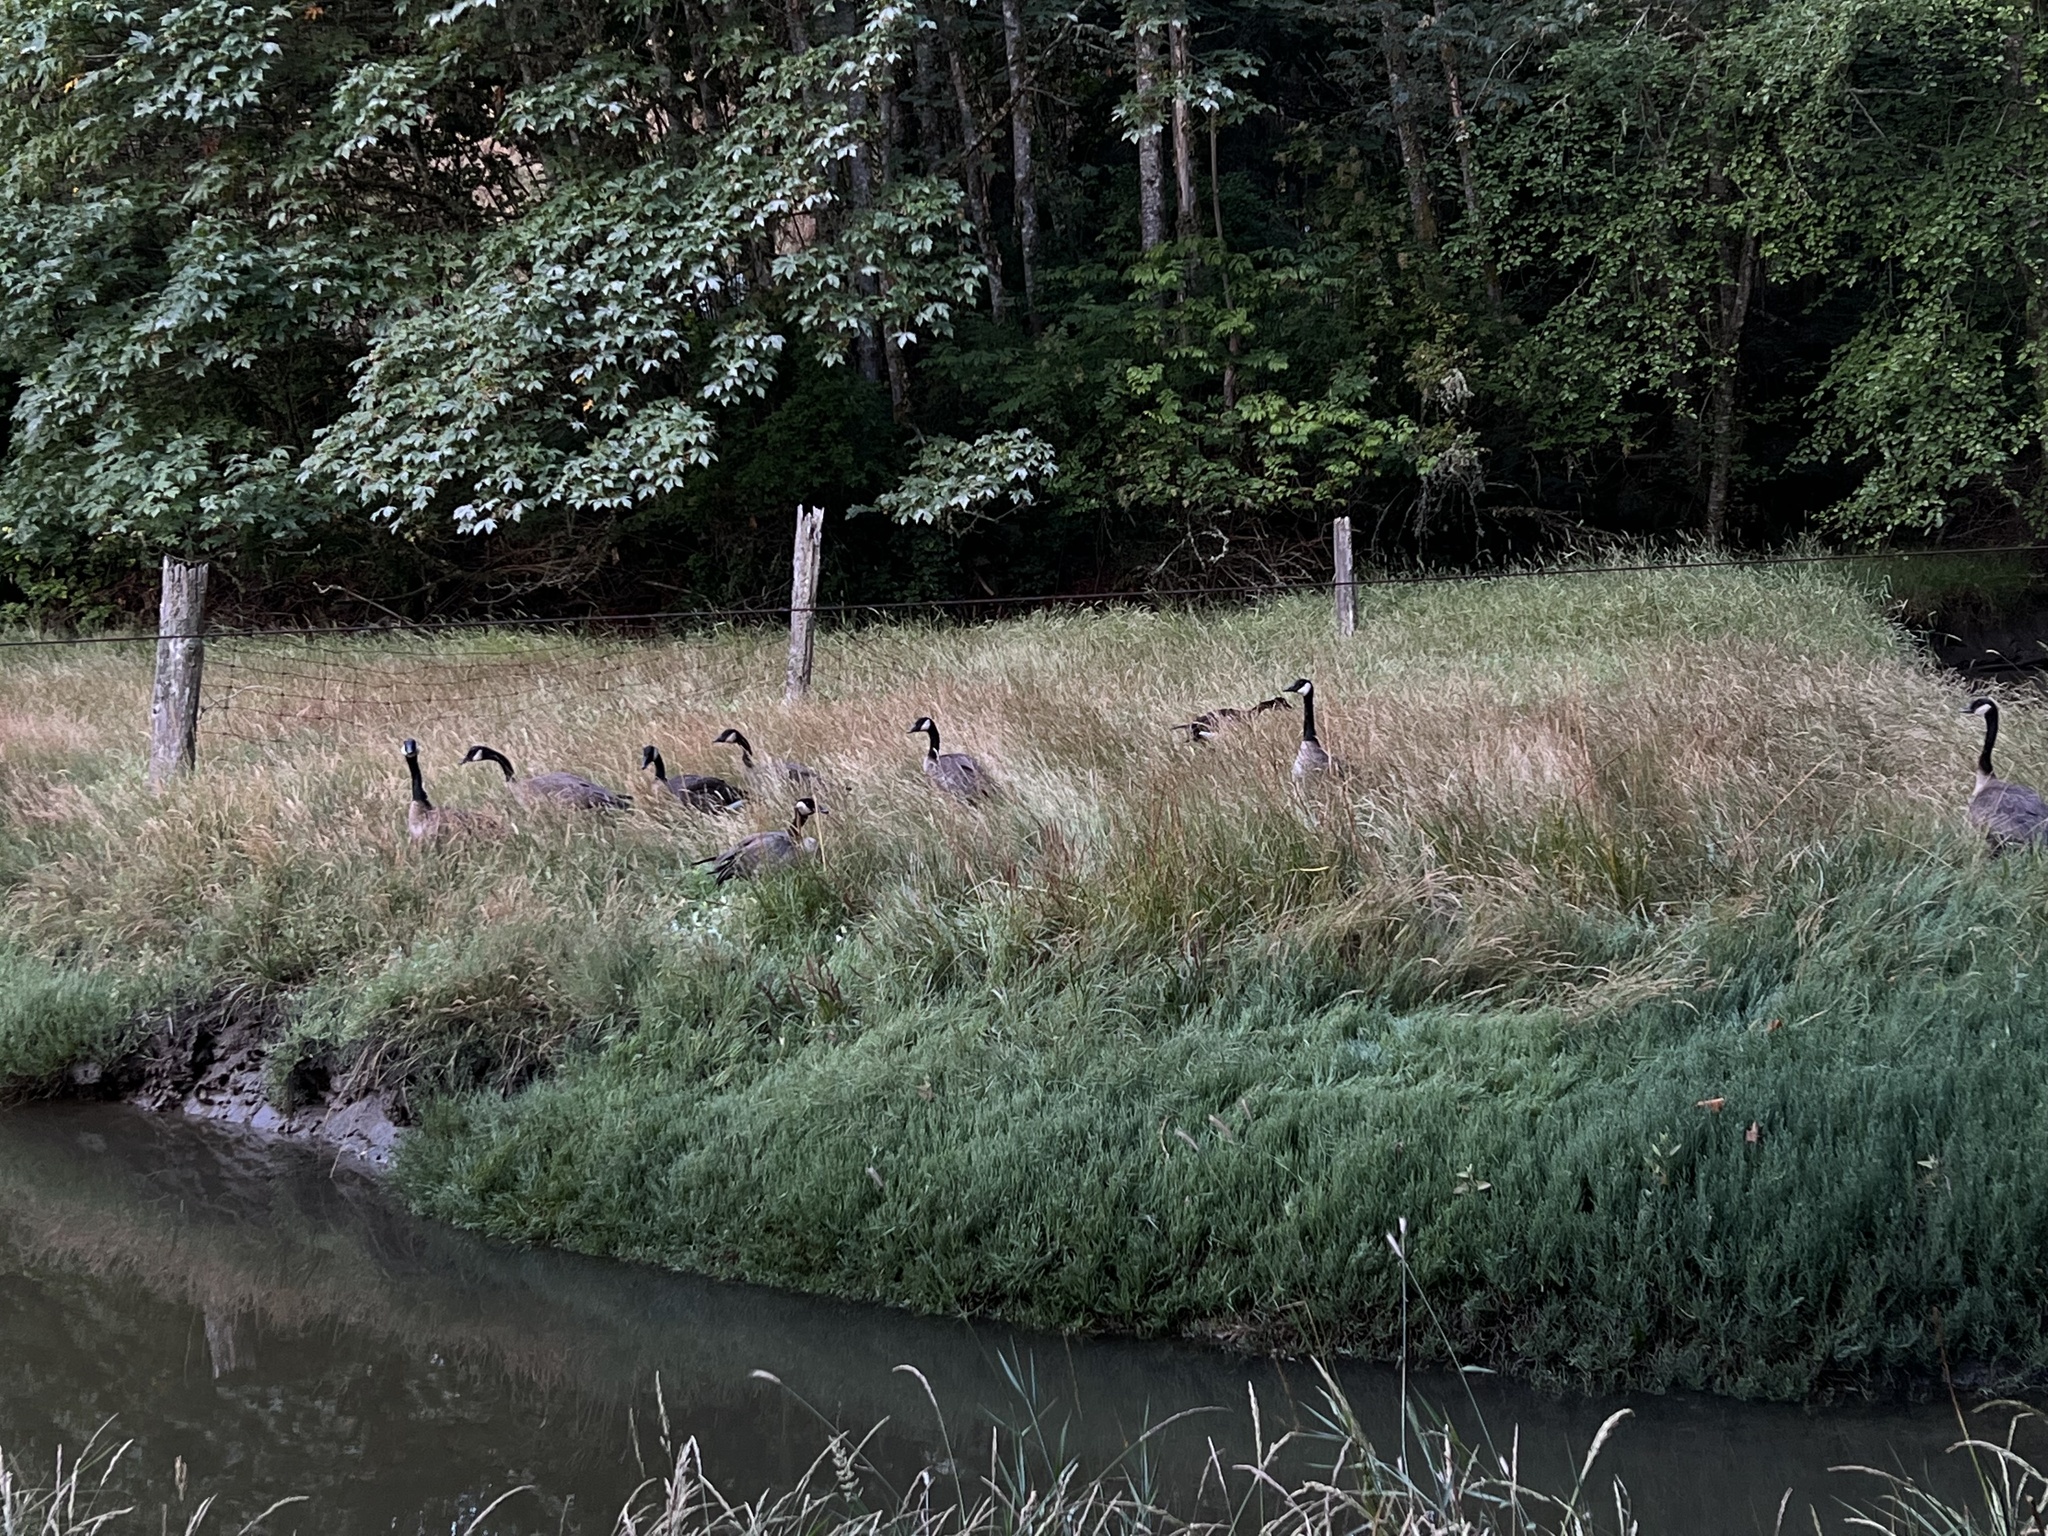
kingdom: Animalia
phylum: Chordata
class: Aves
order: Anseriformes
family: Anatidae
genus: Branta
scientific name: Branta canadensis
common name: Canada goose
